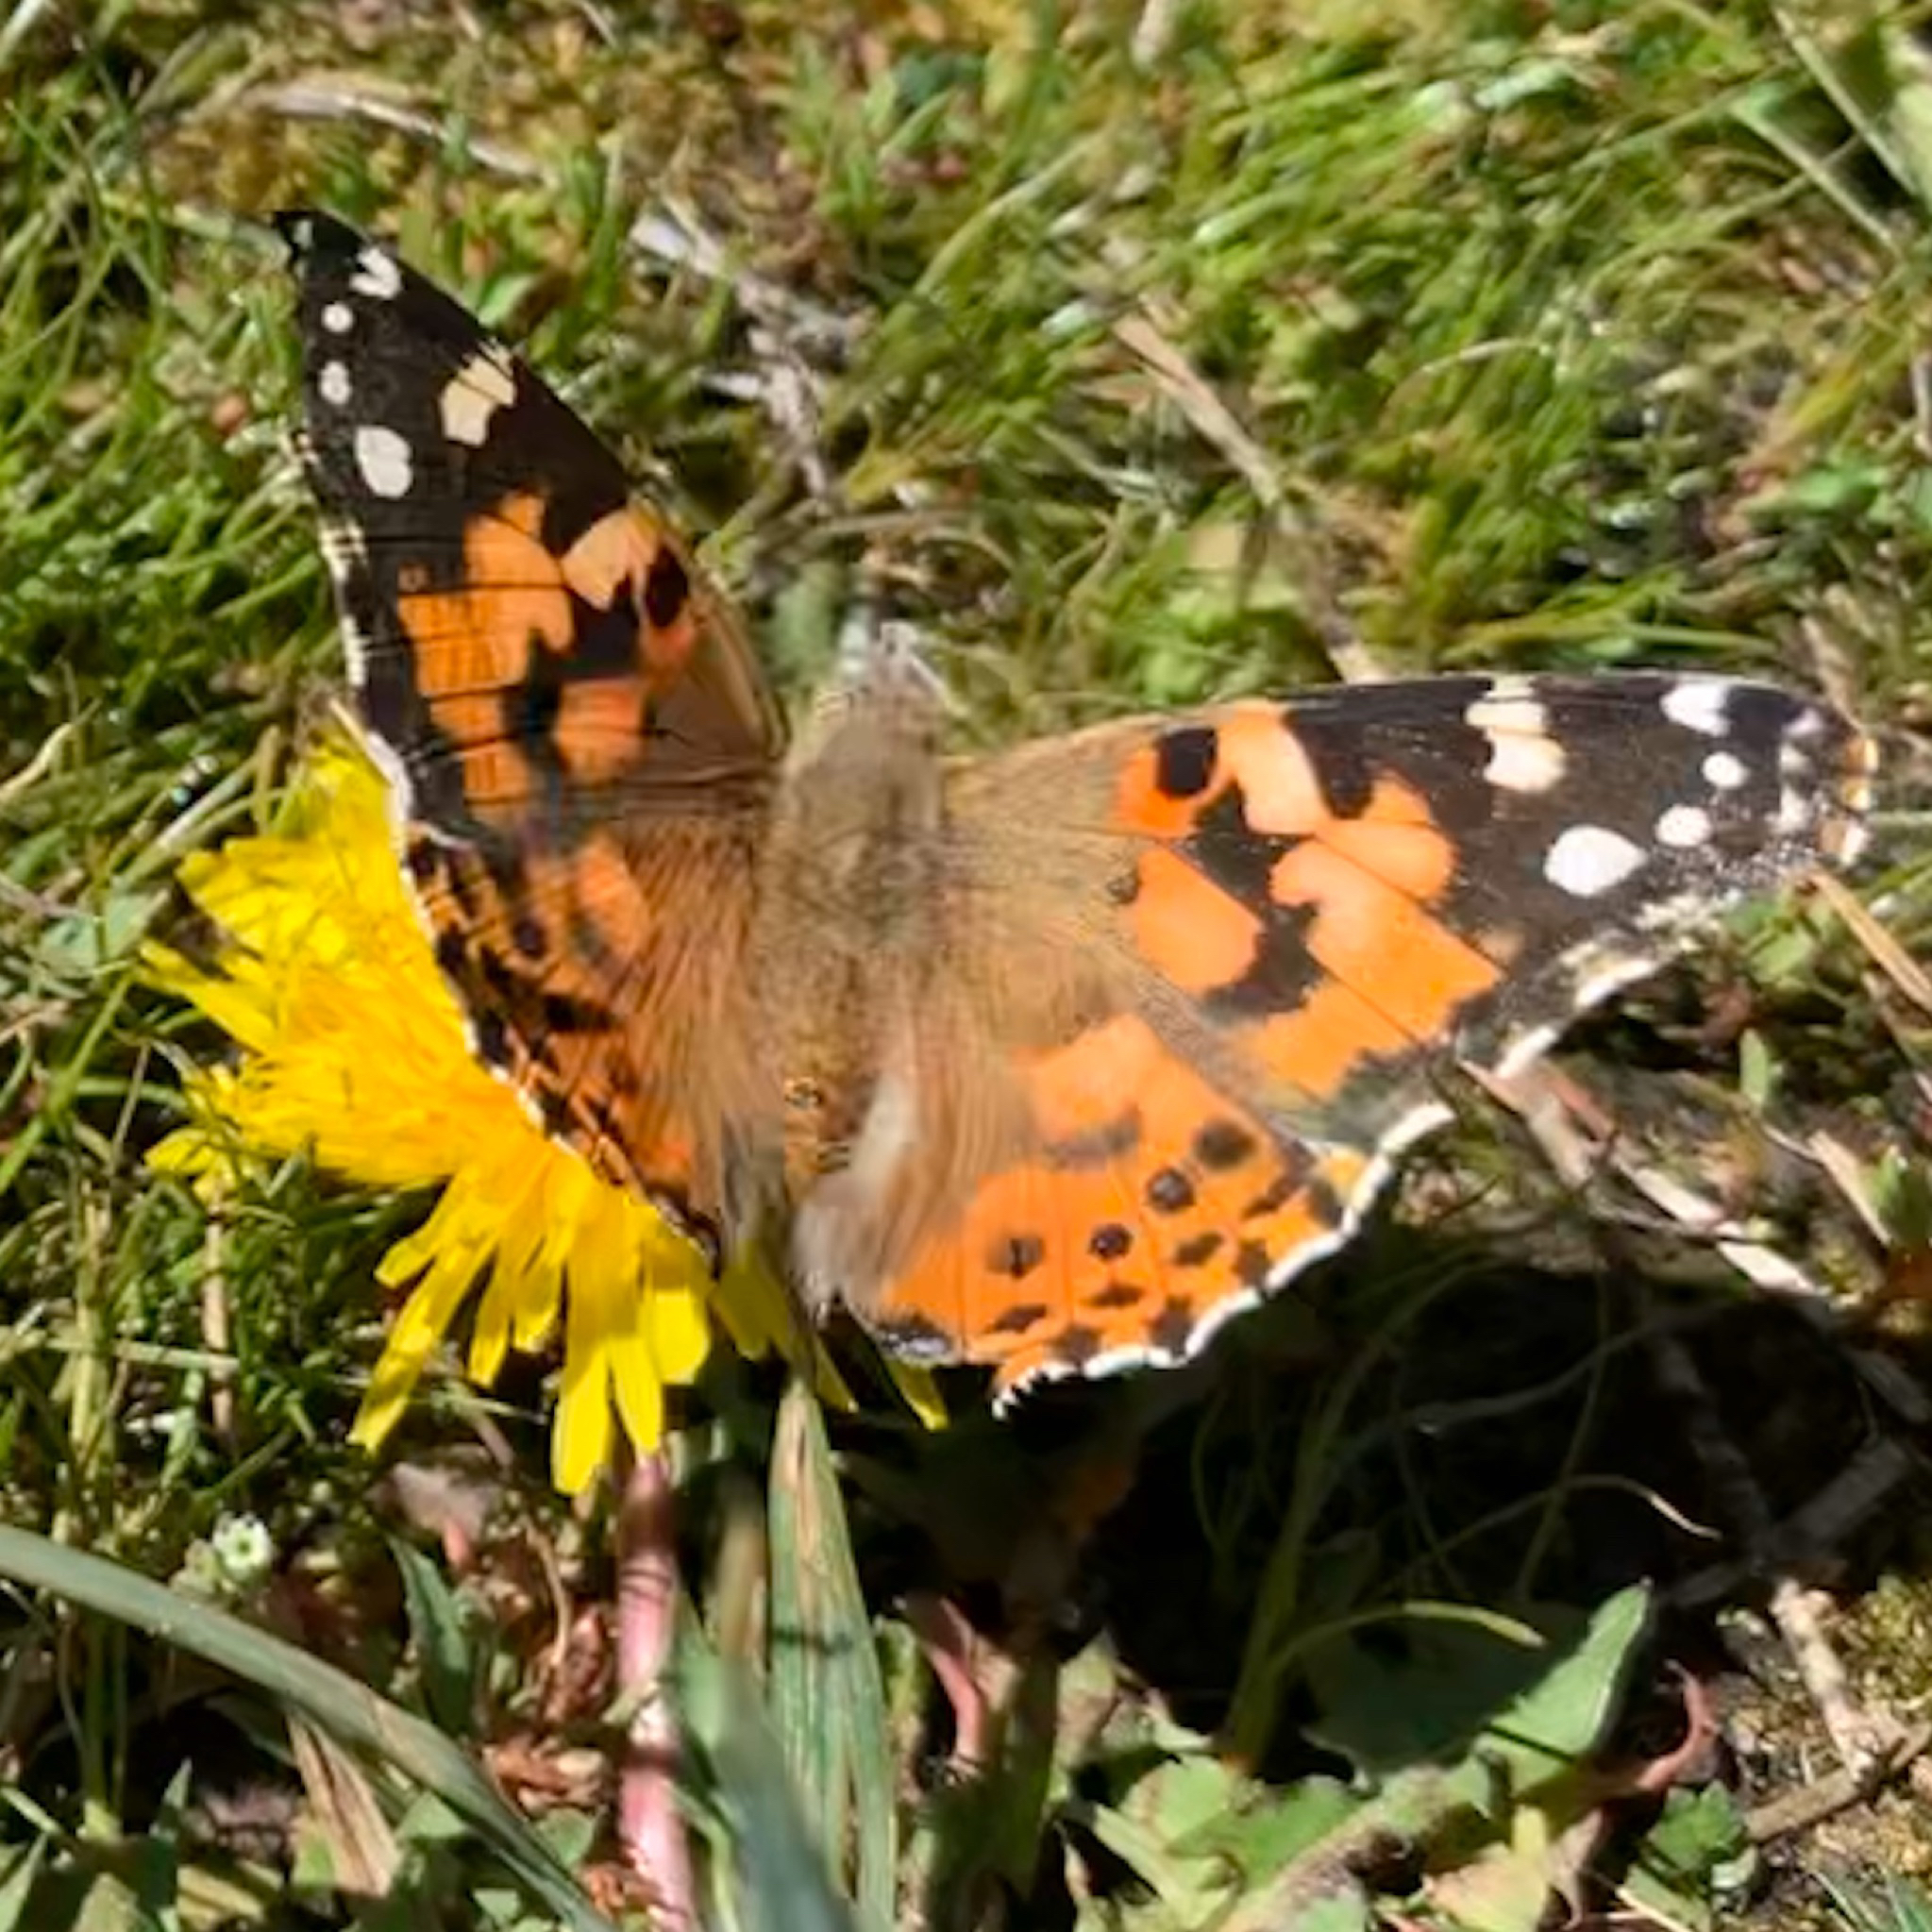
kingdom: Animalia
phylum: Arthropoda
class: Insecta
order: Lepidoptera
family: Nymphalidae
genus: Vanessa
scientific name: Vanessa cardui
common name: Painted lady
